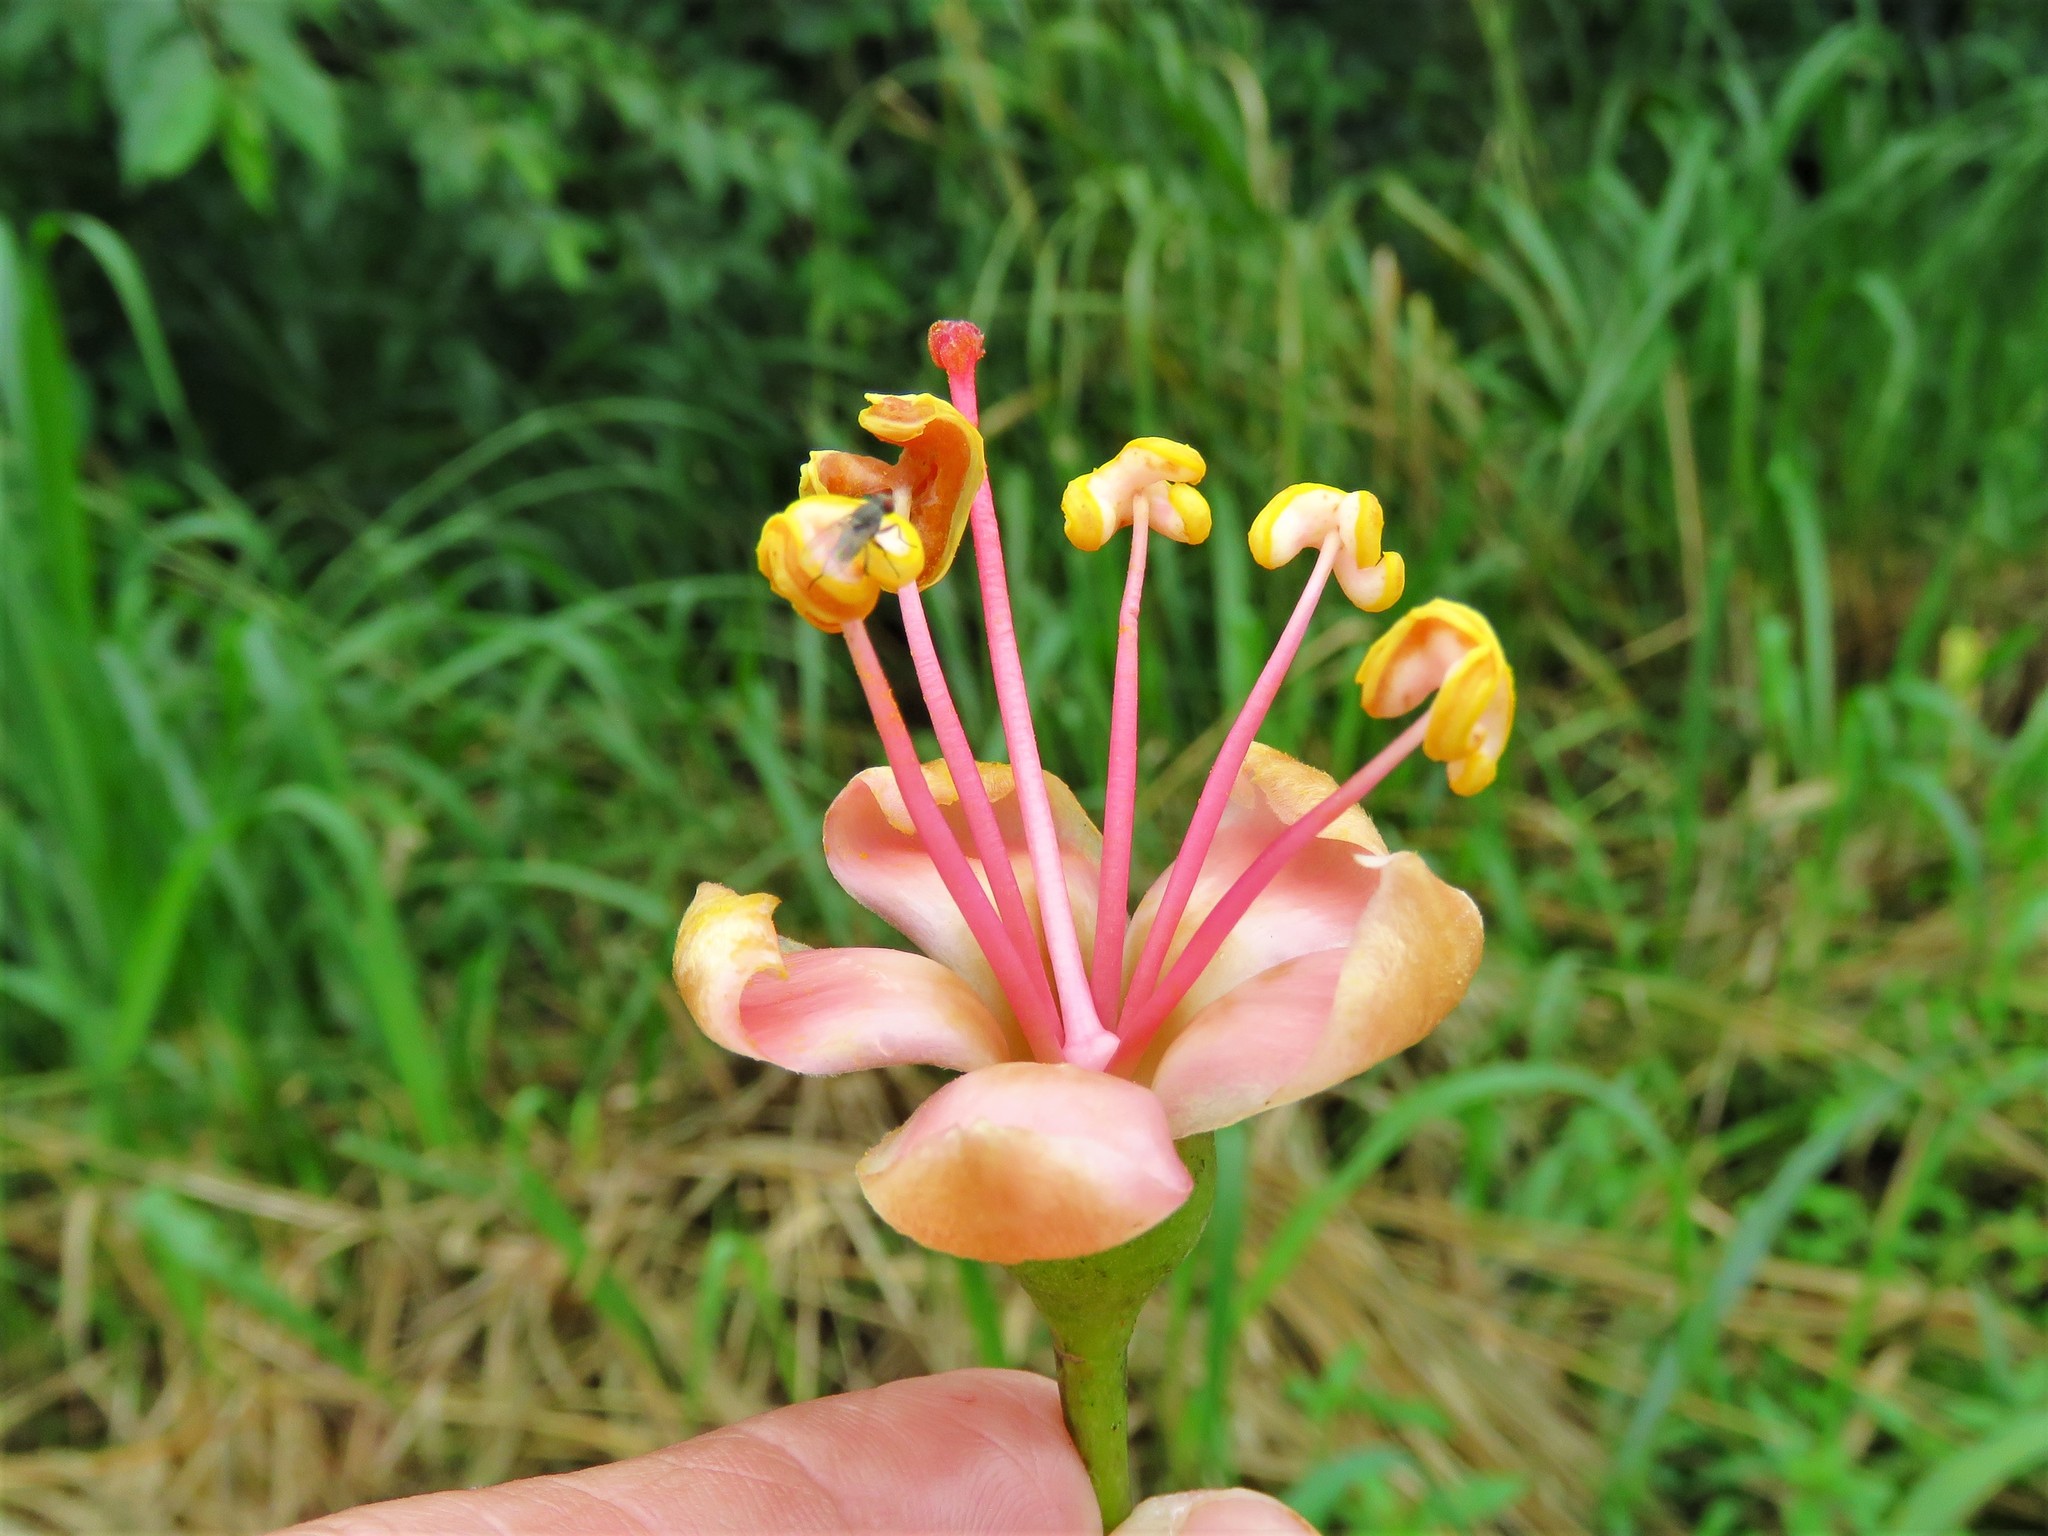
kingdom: Plantae
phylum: Tracheophyta
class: Magnoliopsida
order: Malvales
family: Malvaceae
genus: Ceiba
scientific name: Ceiba pentandra
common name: Kapok
